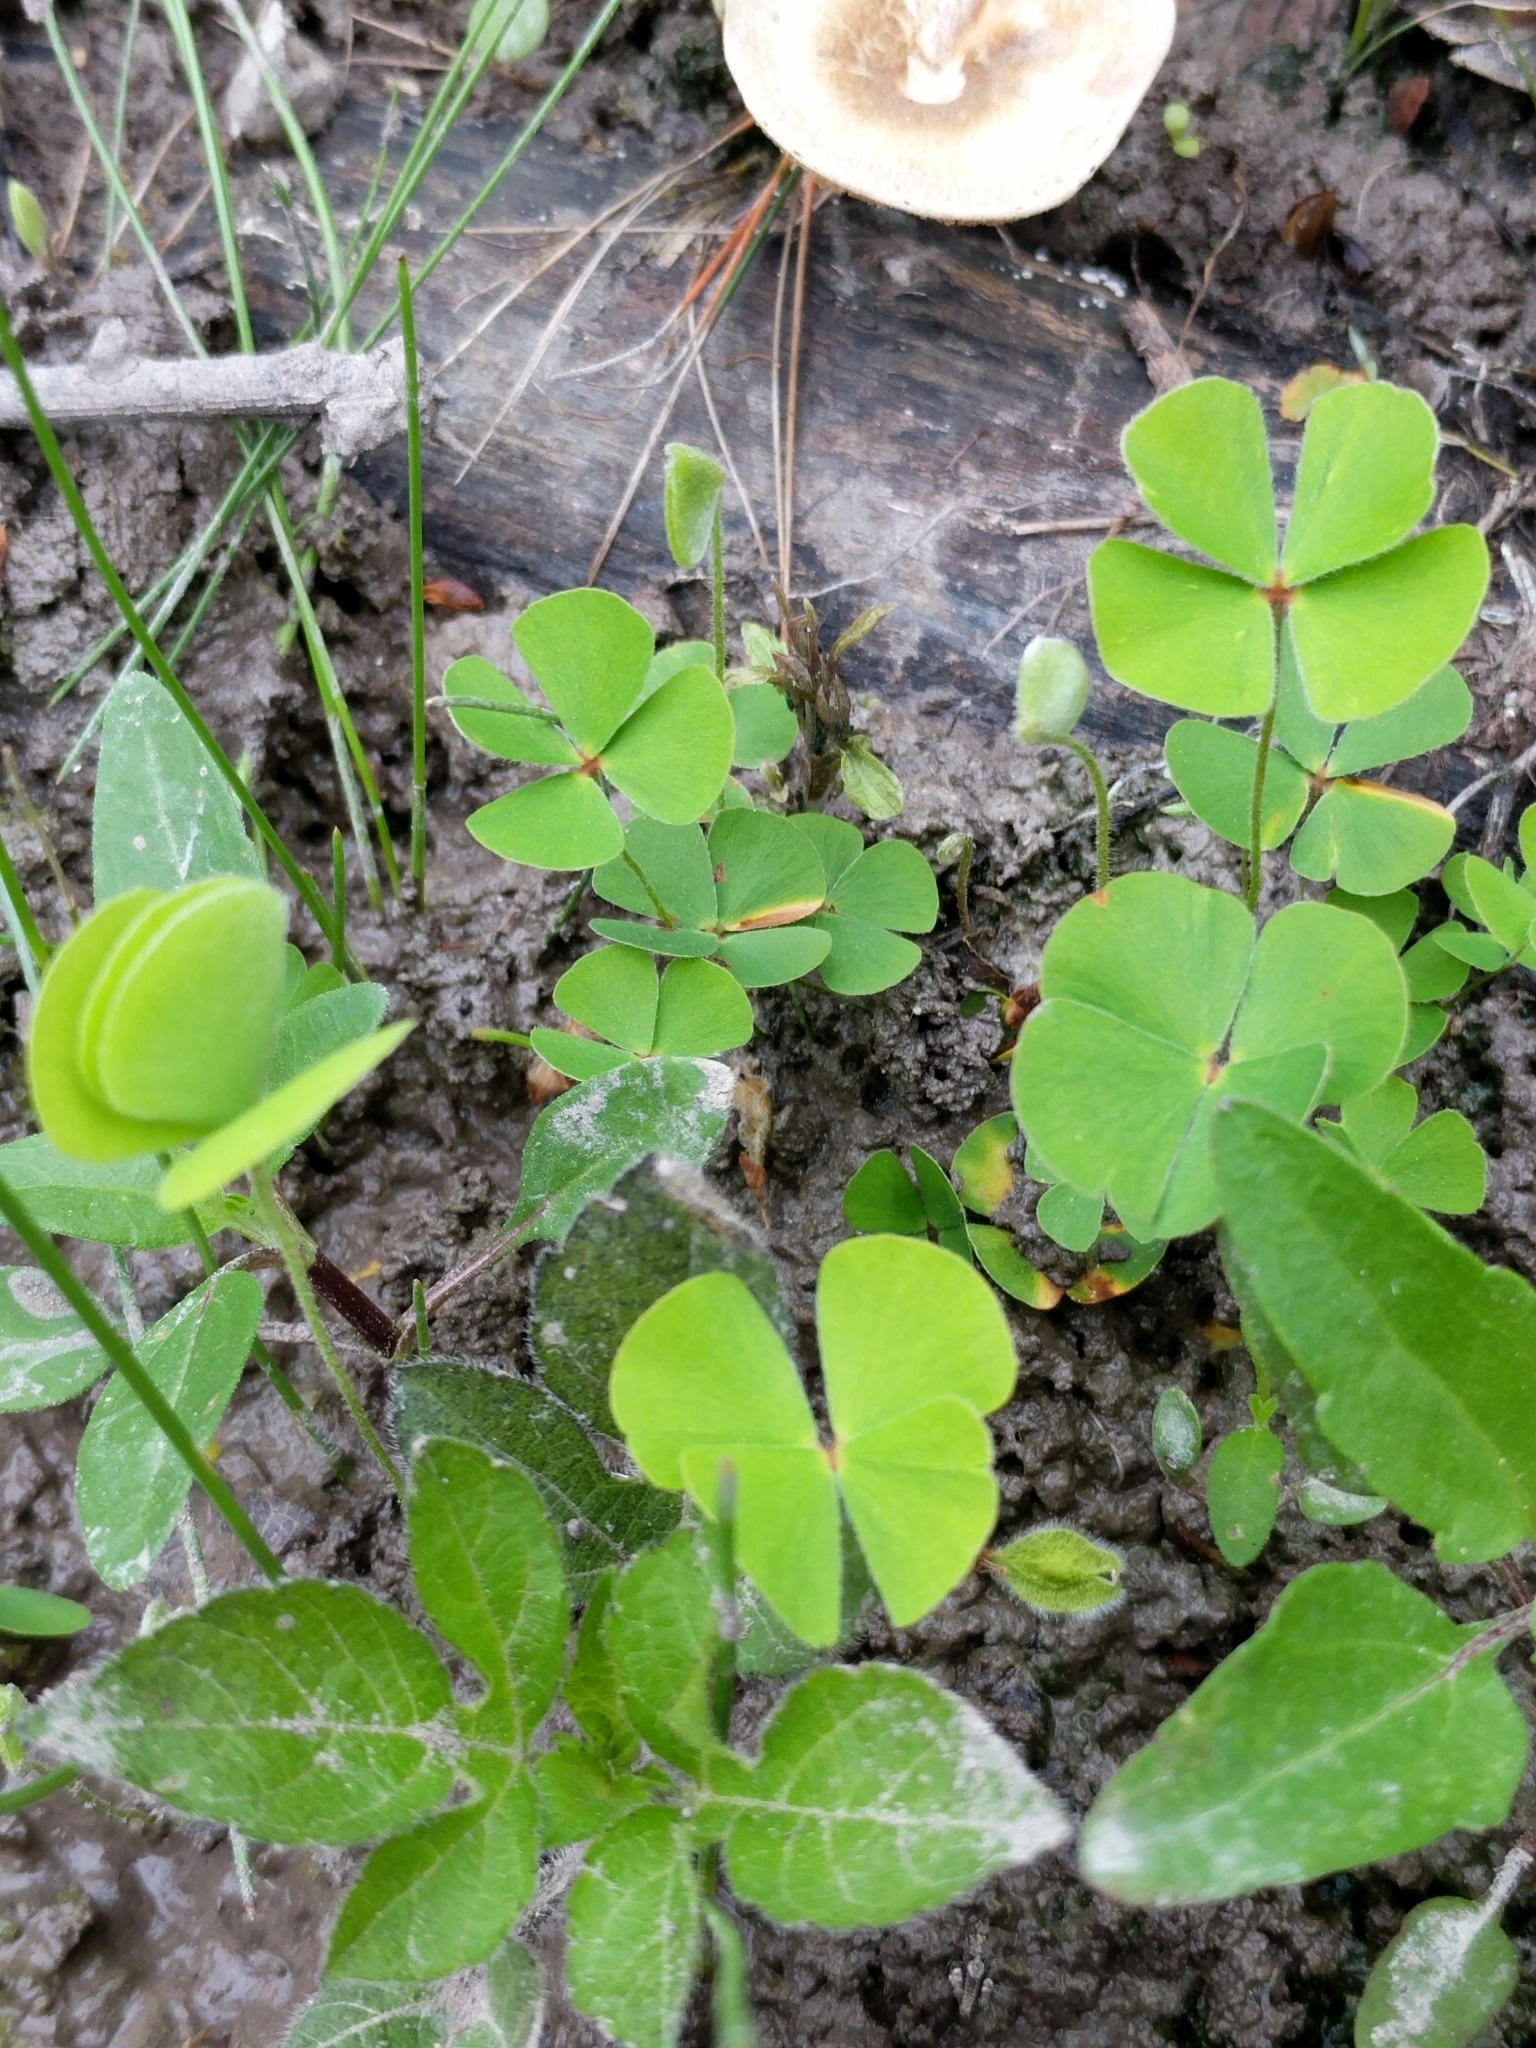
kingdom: Plantae
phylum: Tracheophyta
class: Polypodiopsida
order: Salviniales
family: Marsileaceae
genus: Marsilea
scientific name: Marsilea macropoda
